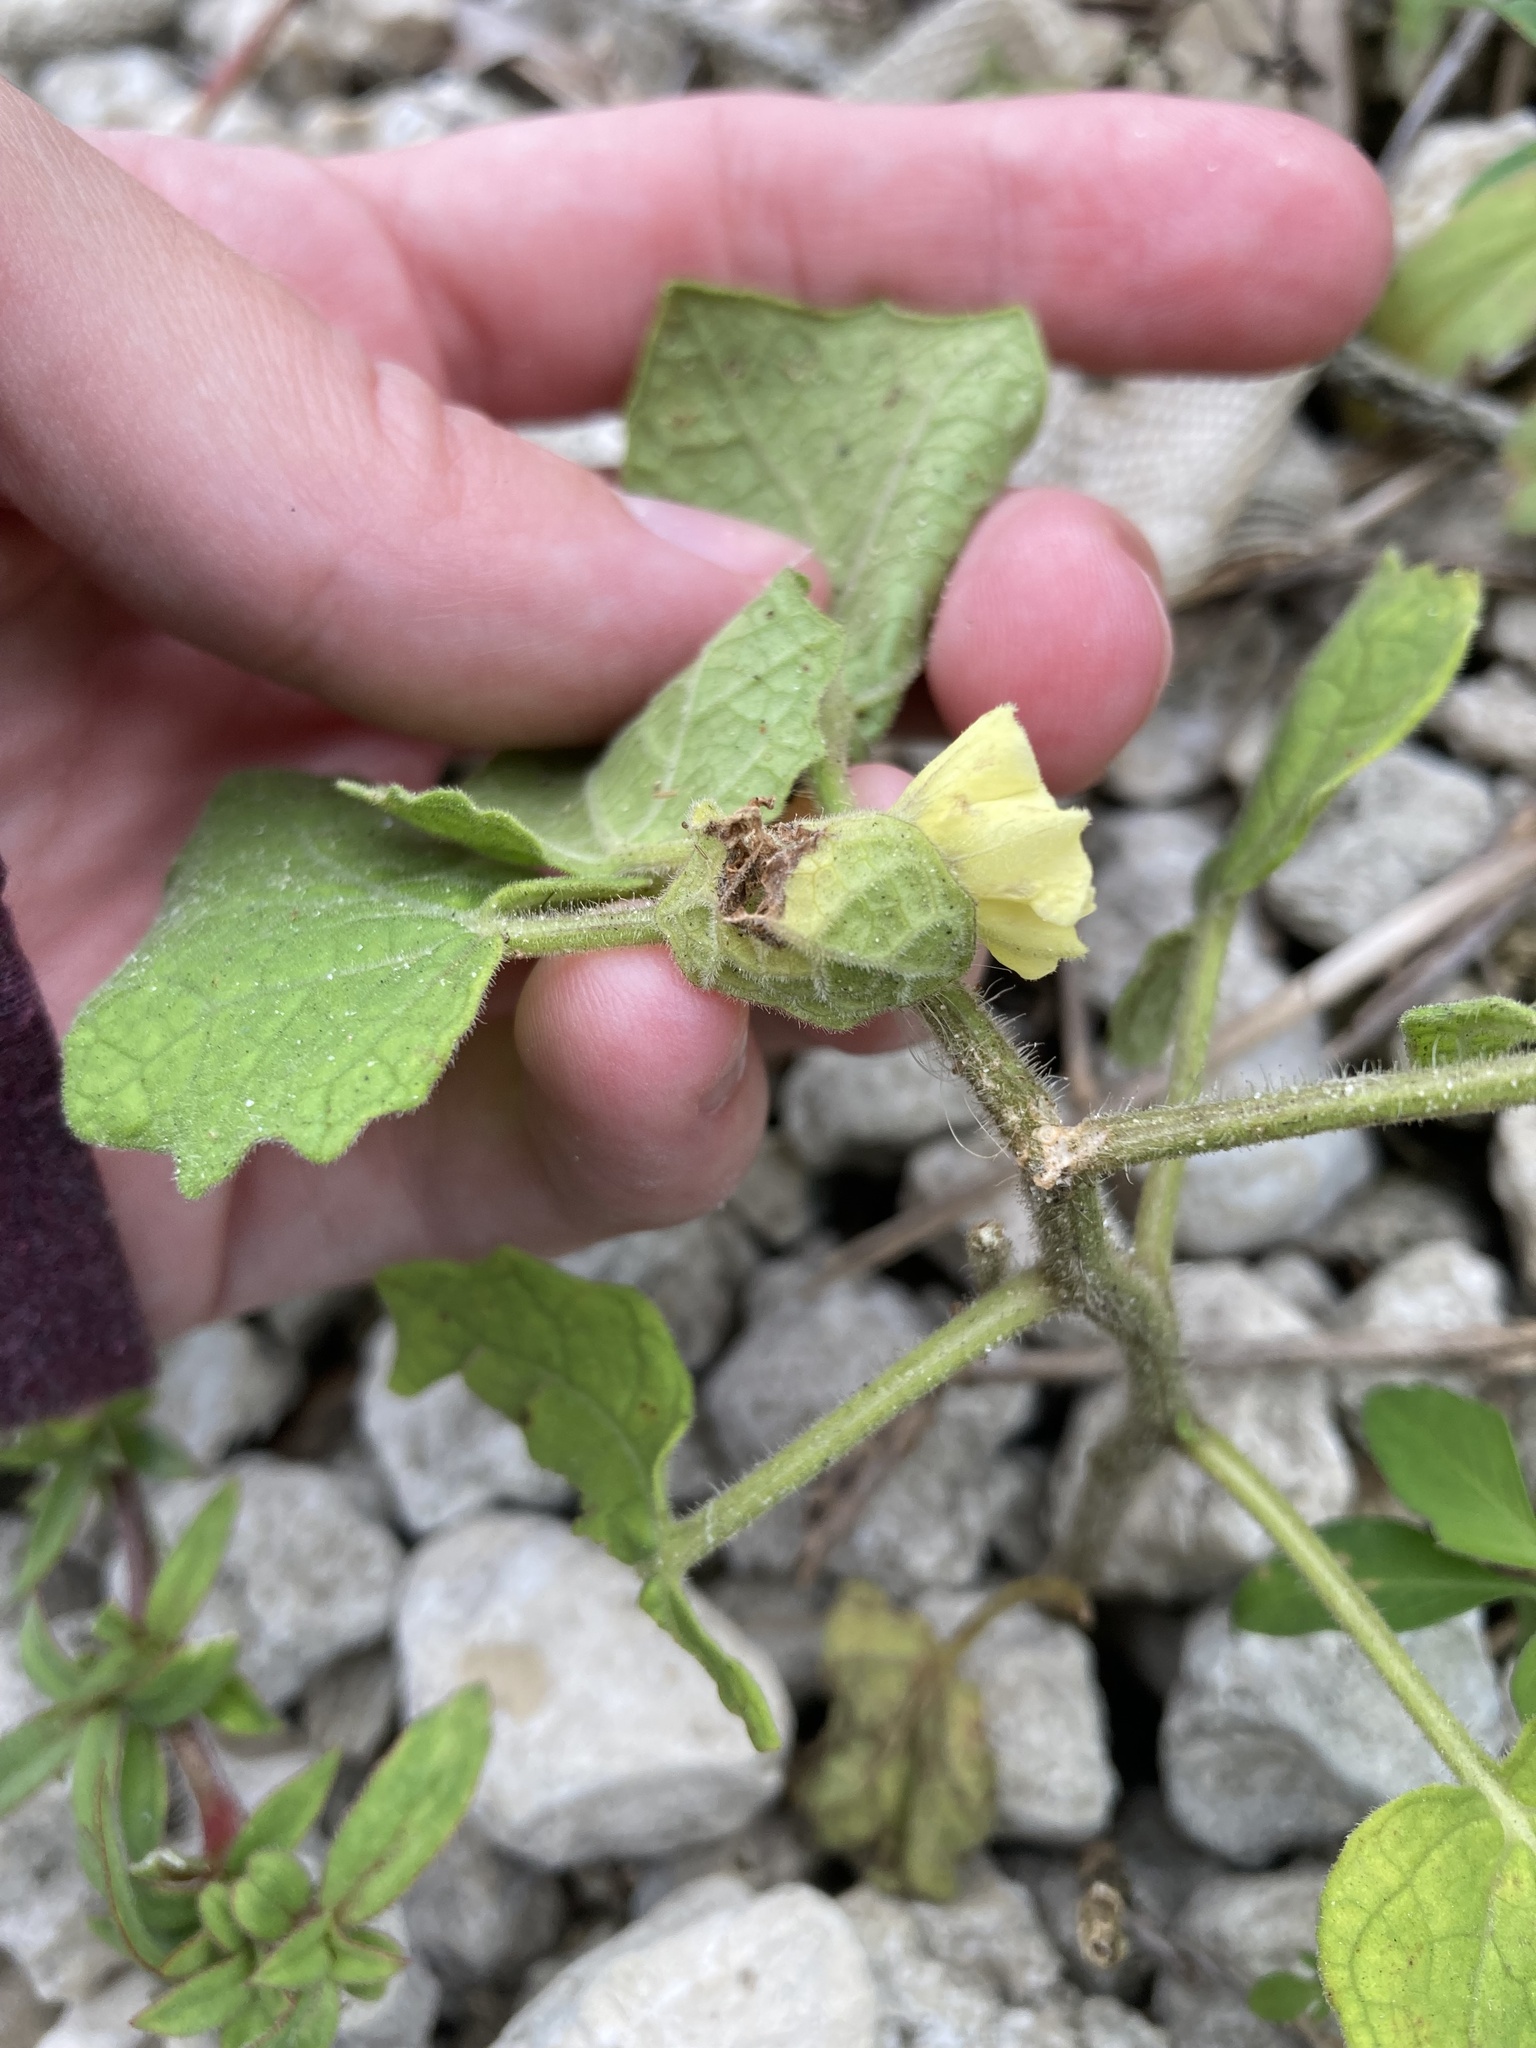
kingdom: Plantae
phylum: Tracheophyta
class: Magnoliopsida
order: Solanales
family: Solanaceae
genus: Physalis
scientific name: Physalis arenicola
